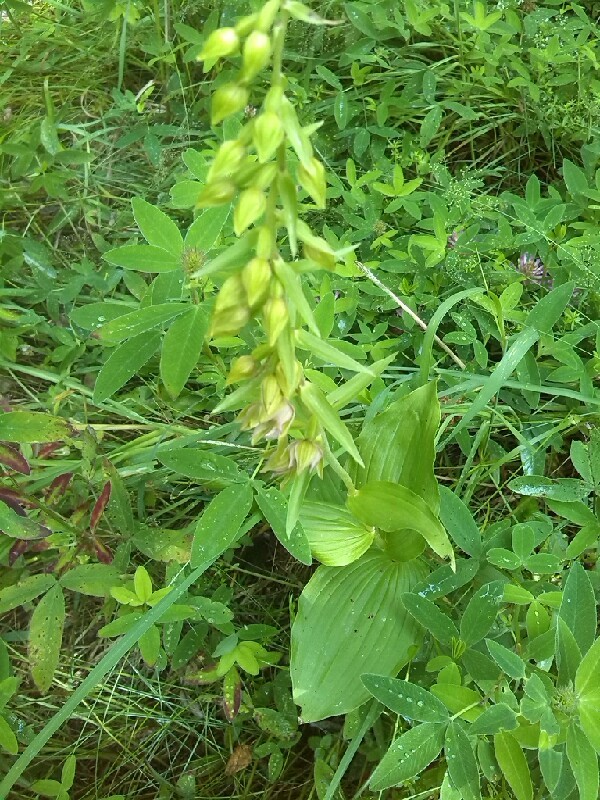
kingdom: Plantae
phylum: Tracheophyta
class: Liliopsida
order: Asparagales
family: Orchidaceae
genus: Epipactis
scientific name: Epipactis helleborine
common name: Broad-leaved helleborine
